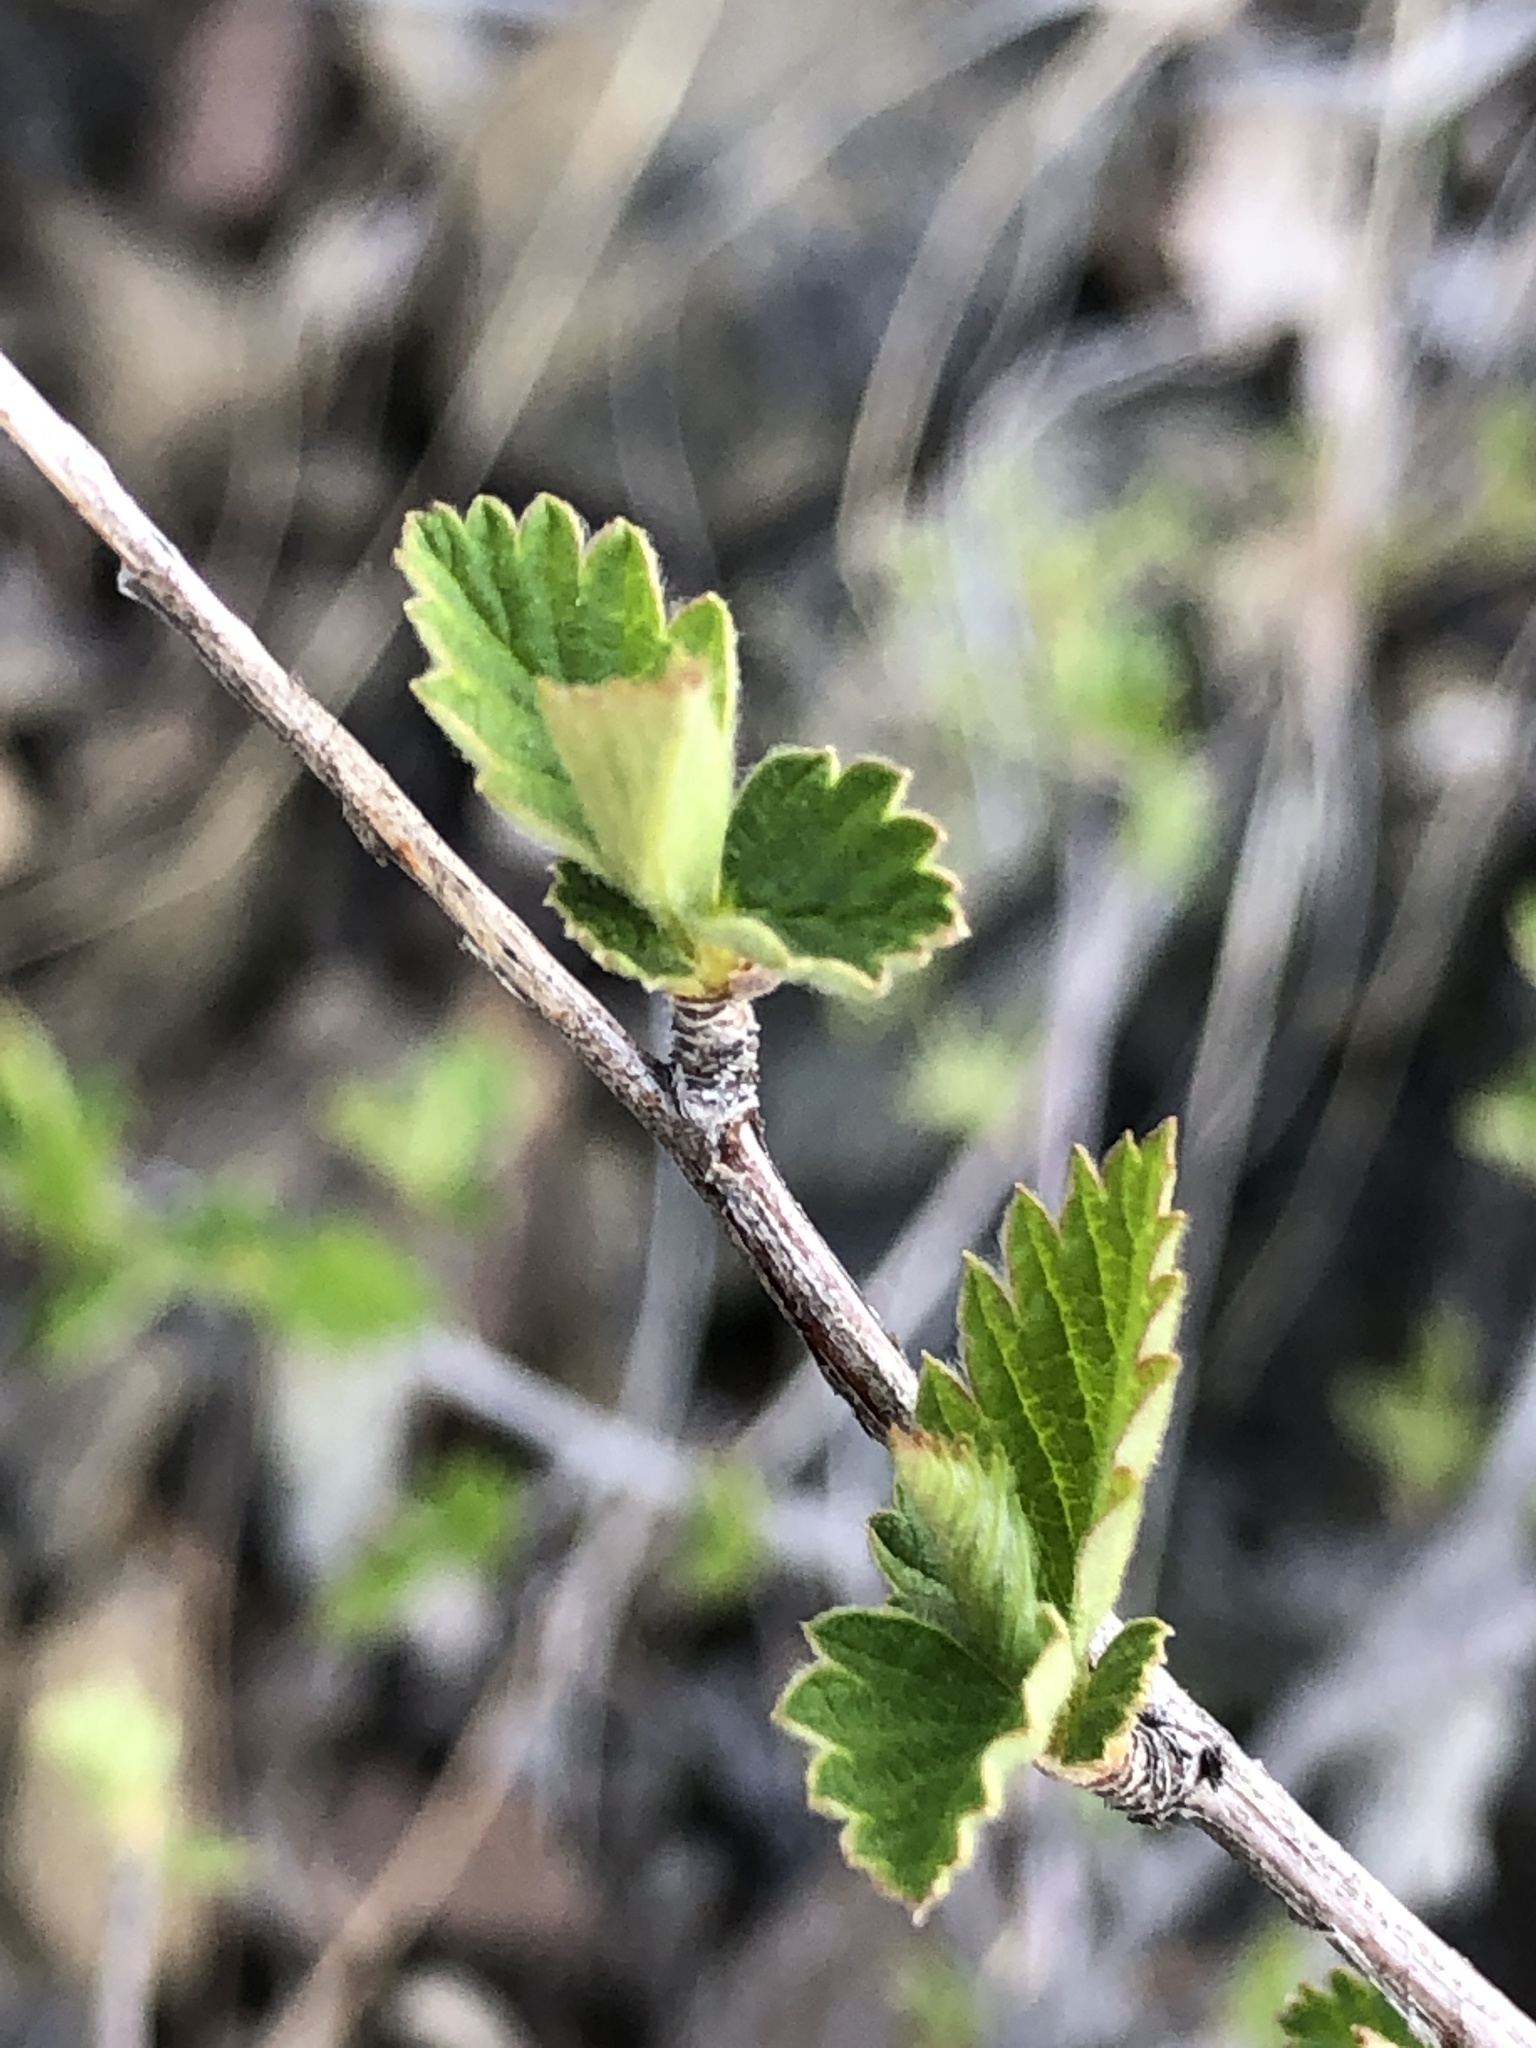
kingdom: Plantae
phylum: Tracheophyta
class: Magnoliopsida
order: Rosales
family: Rosaceae
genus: Cercocarpus
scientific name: Cercocarpus betuloides
